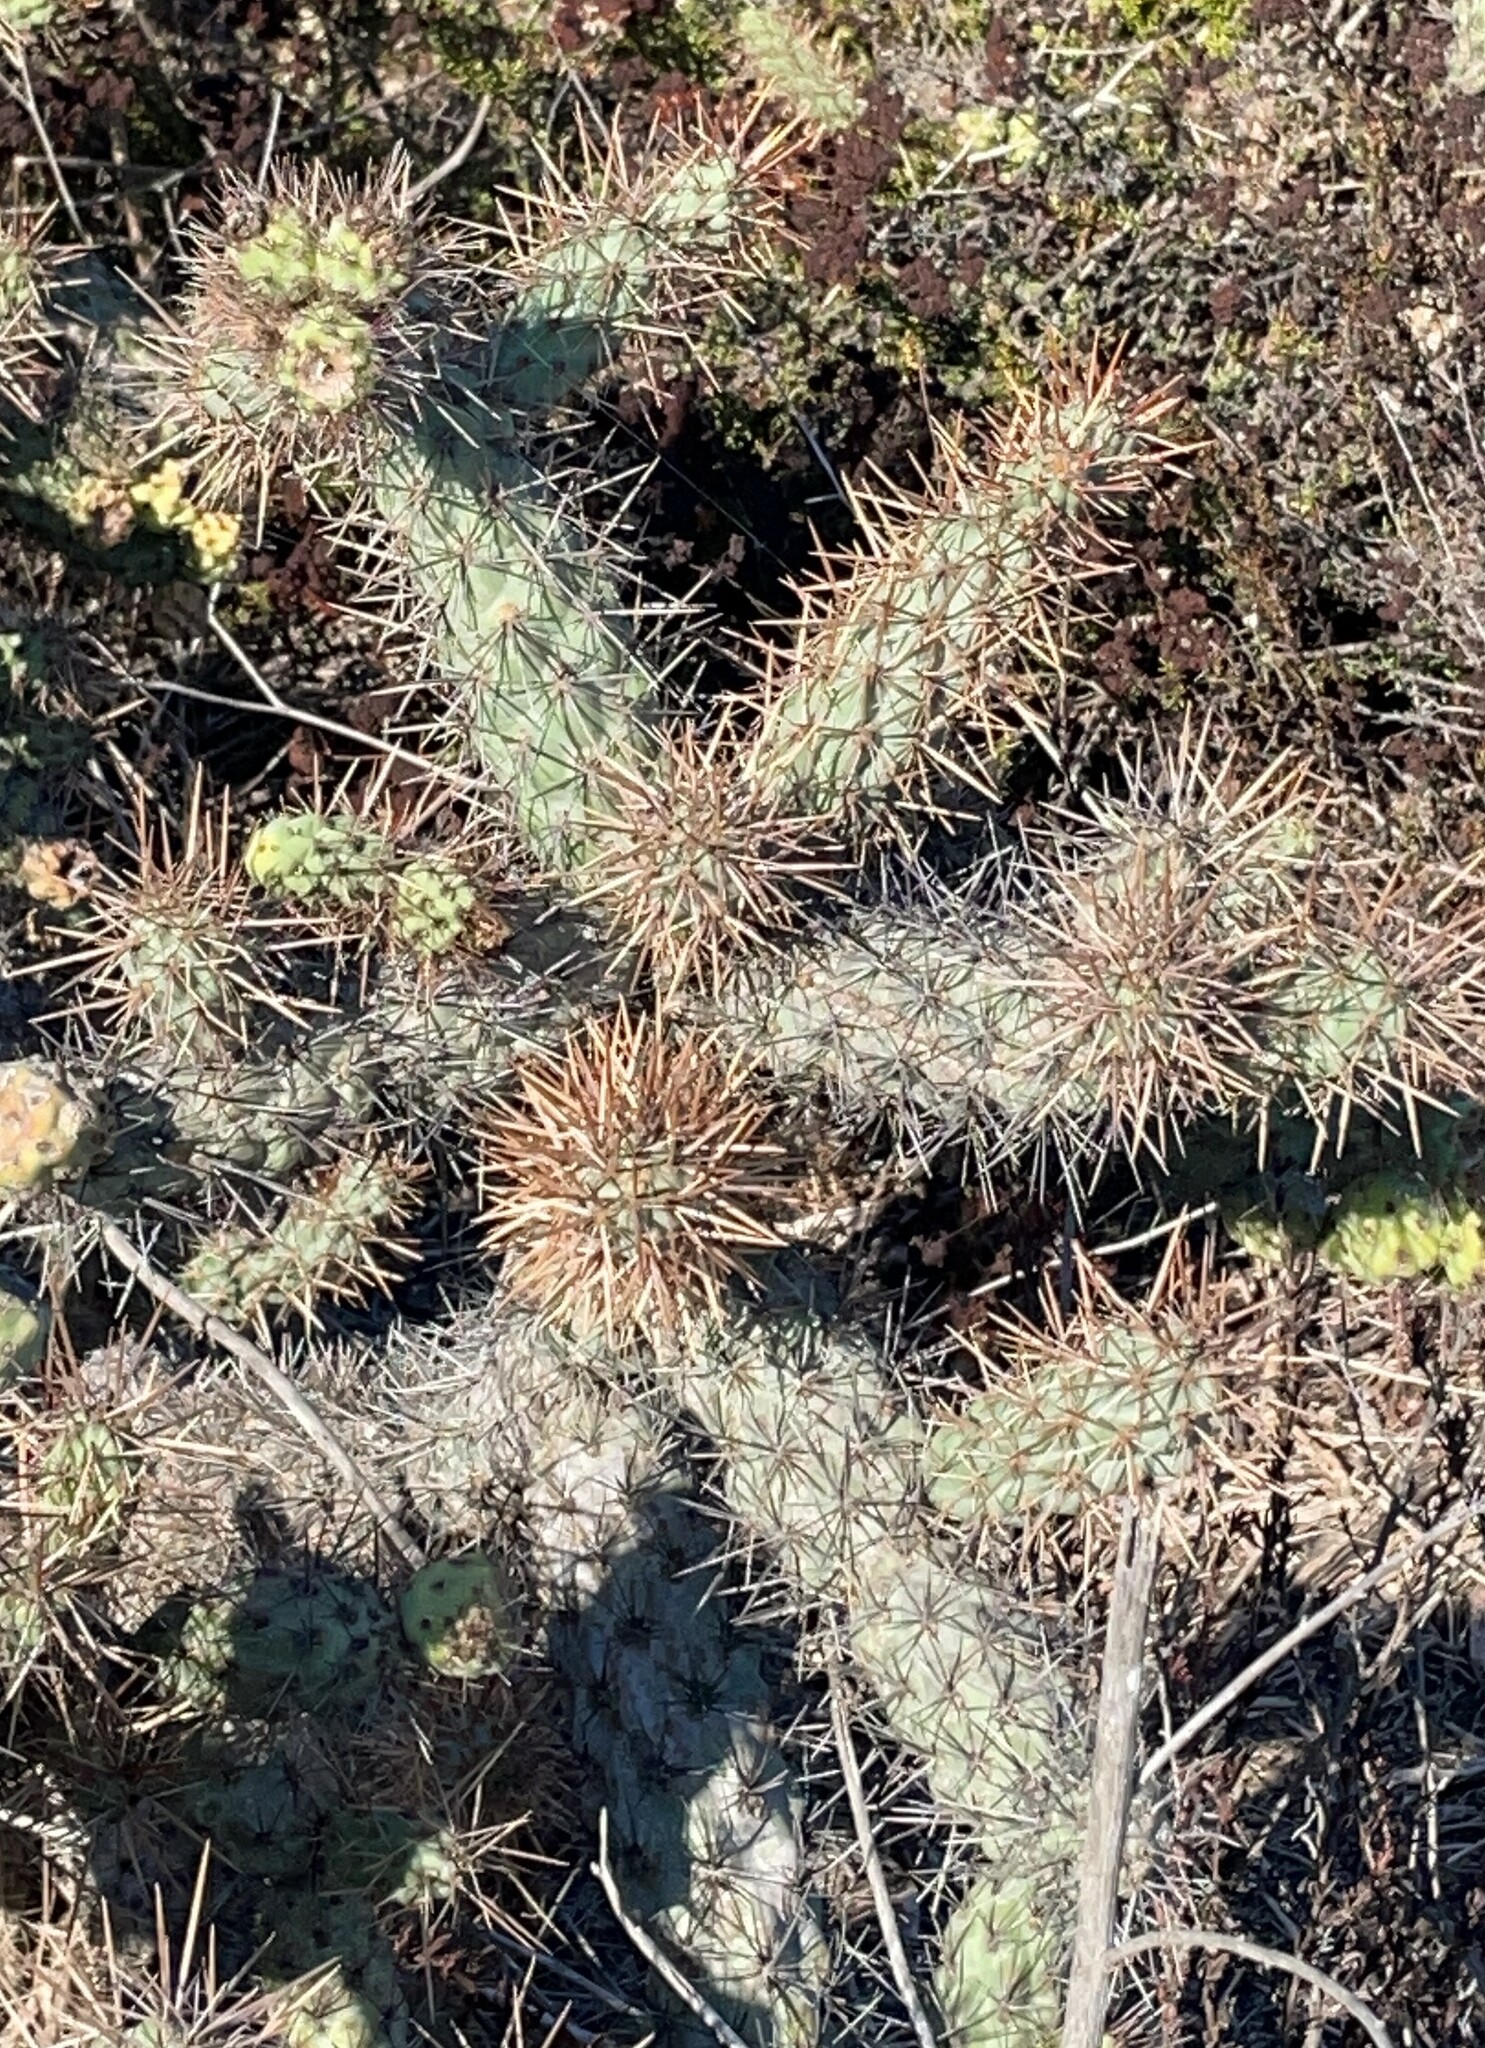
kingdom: Plantae
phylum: Tracheophyta
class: Magnoliopsida
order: Caryophyllales
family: Cactaceae
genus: Cylindropuntia
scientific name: Cylindropuntia prolifera
